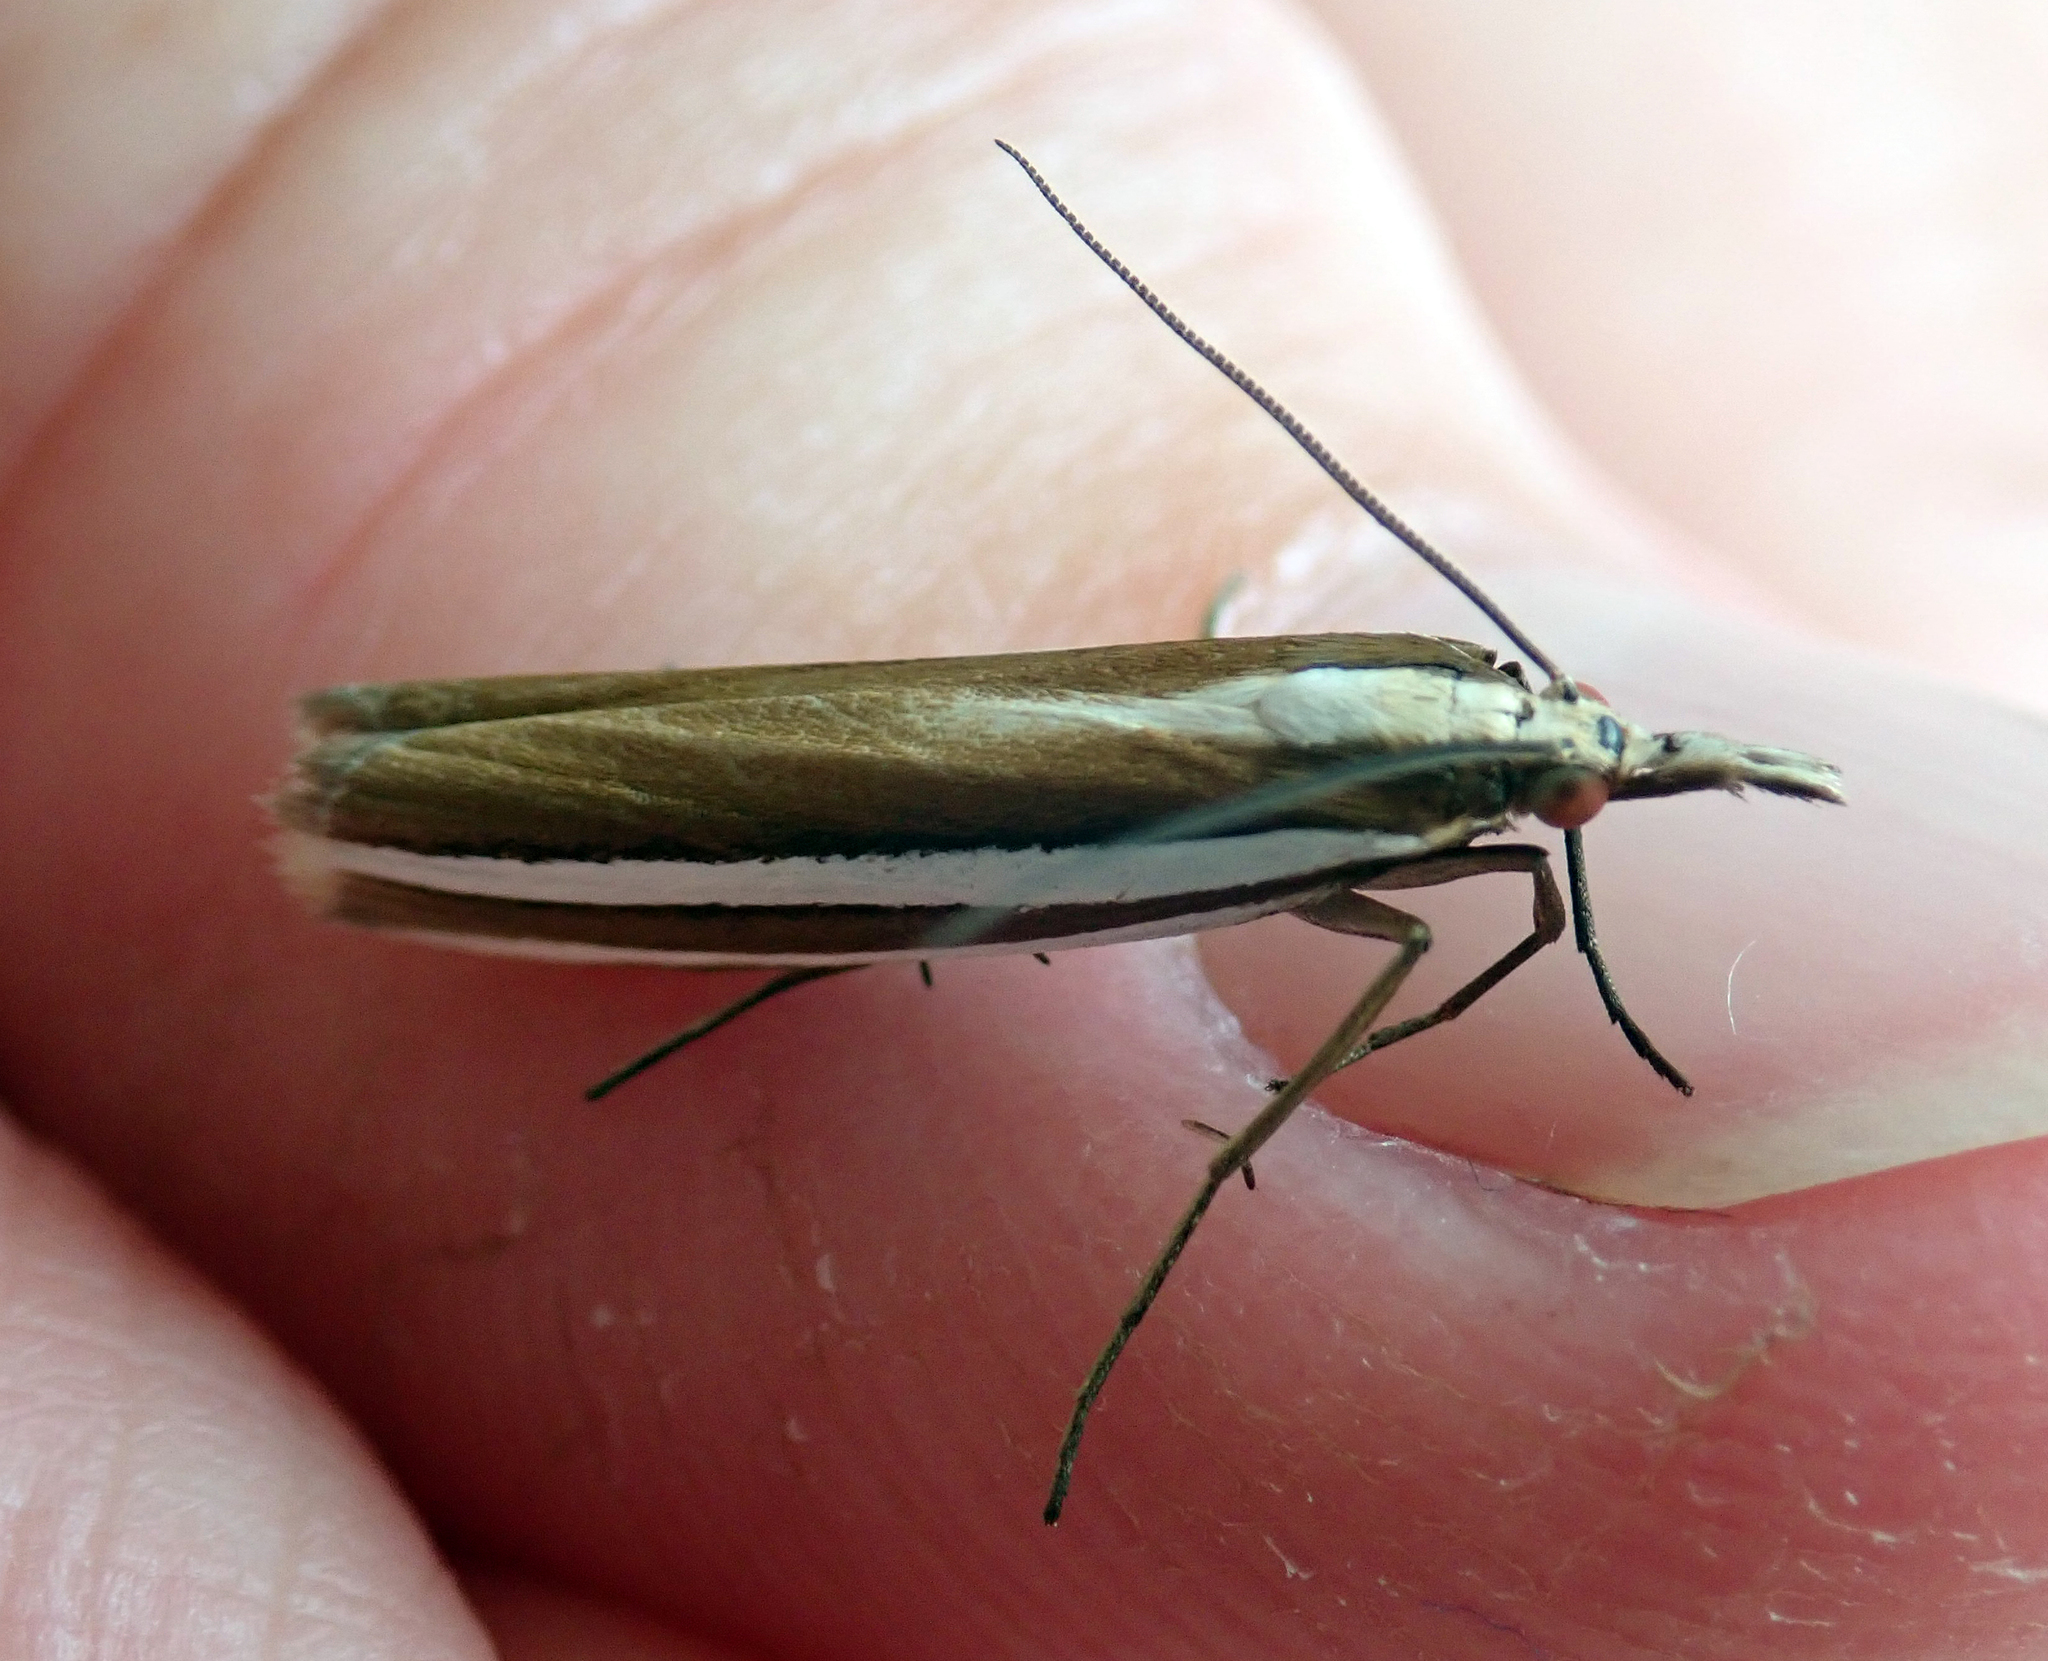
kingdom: Animalia
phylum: Arthropoda
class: Insecta
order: Lepidoptera
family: Crambidae
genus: Orocrambus
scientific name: Orocrambus siriellus
